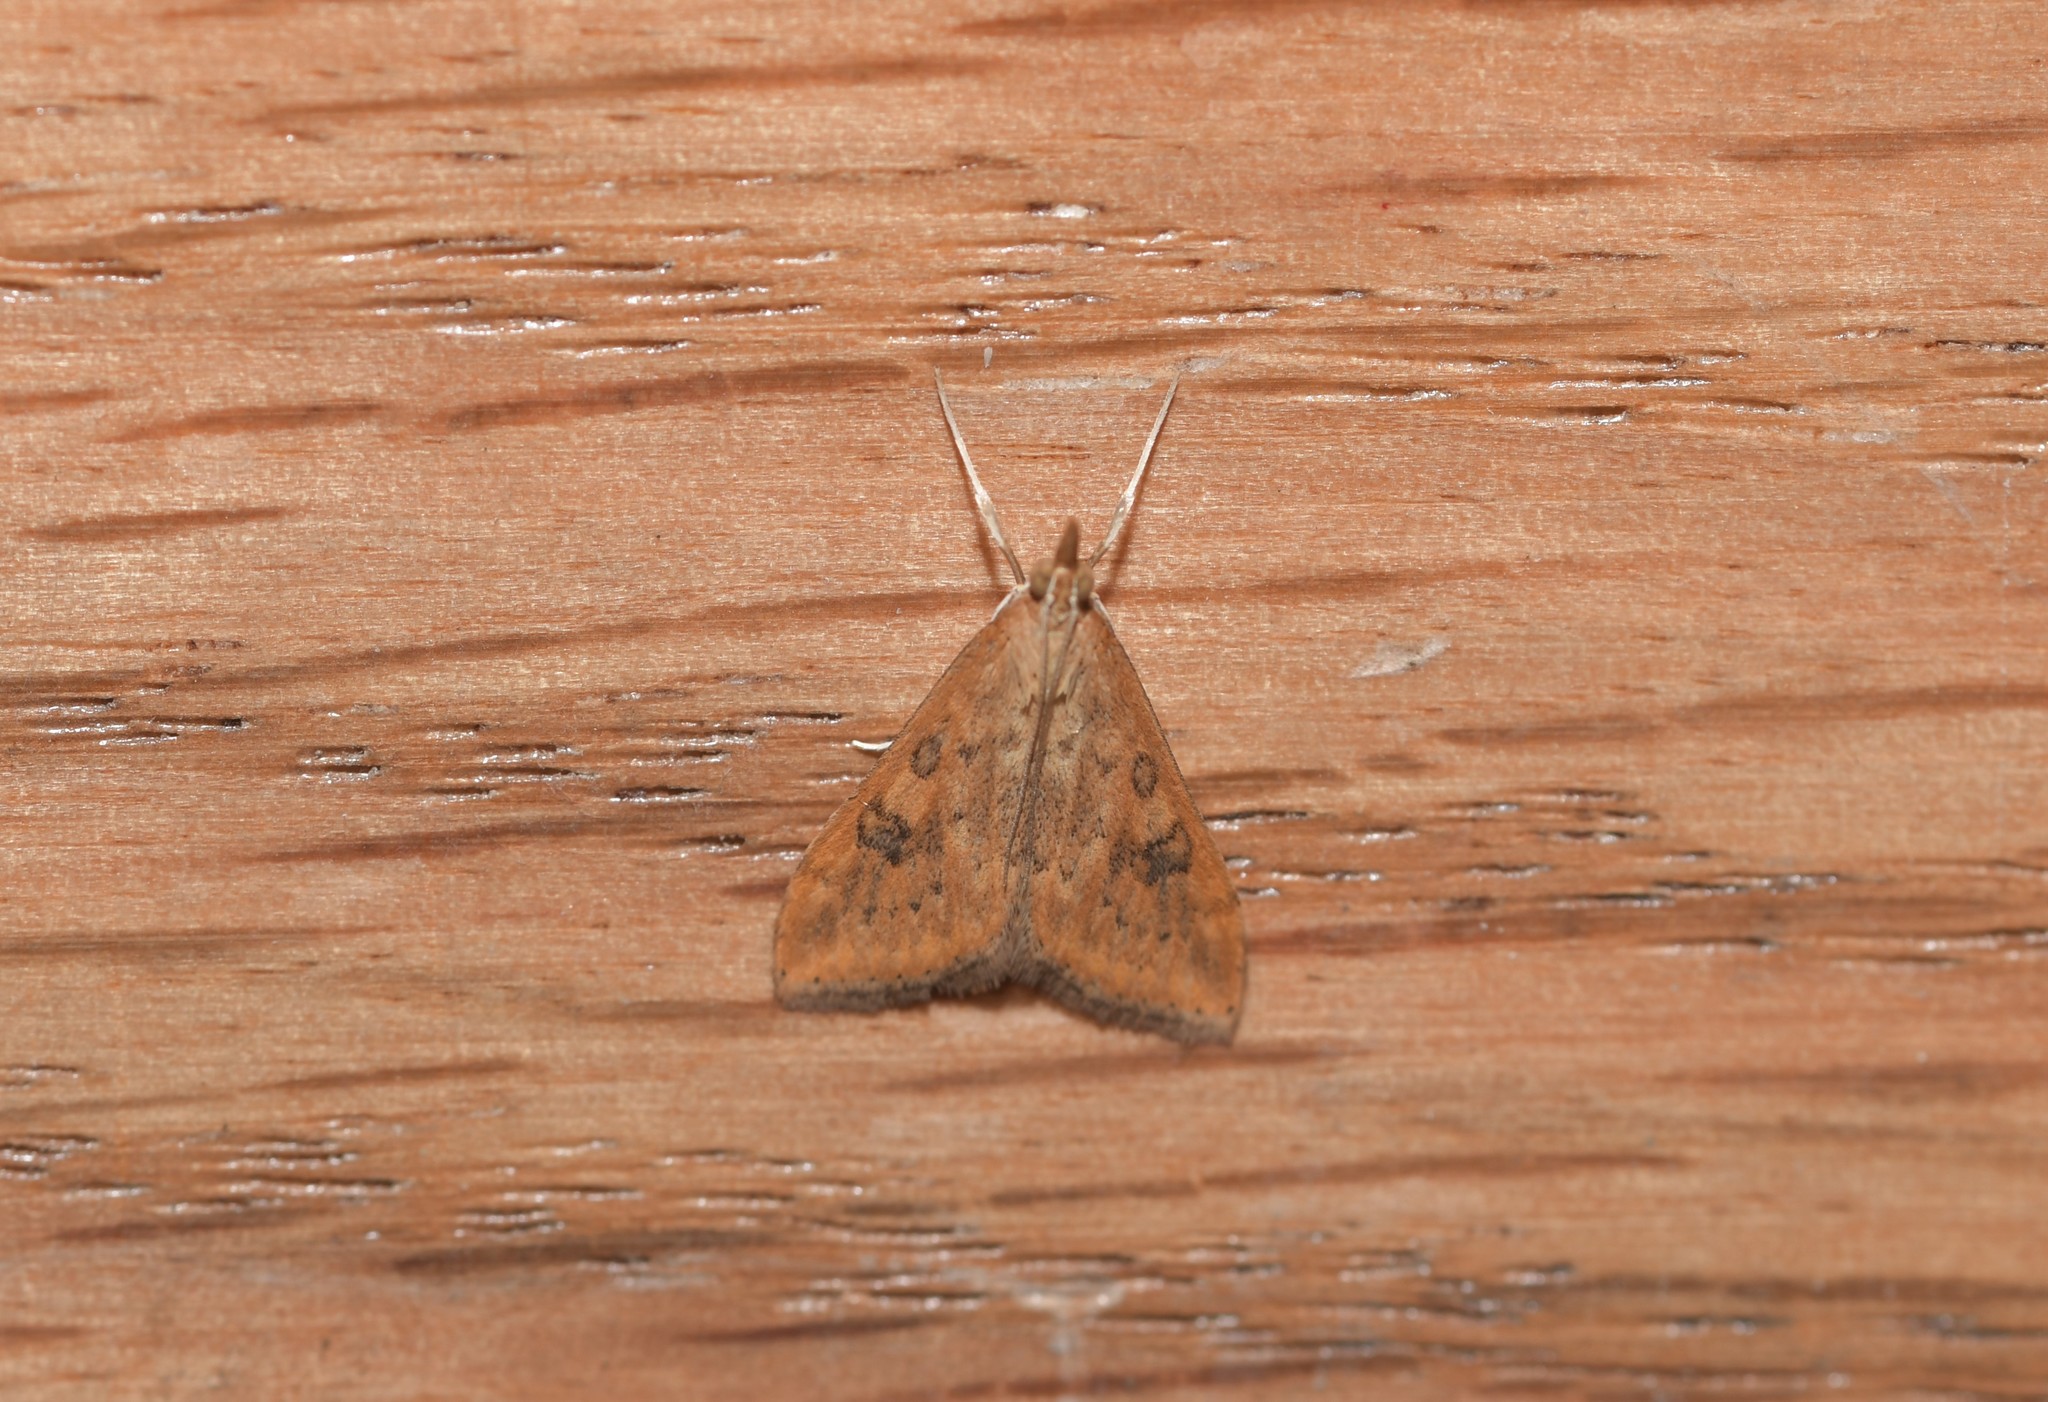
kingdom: Animalia
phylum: Arthropoda
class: Insecta
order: Lepidoptera
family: Crambidae
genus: Udea
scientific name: Udea ferrugalis
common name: Rusty dot
